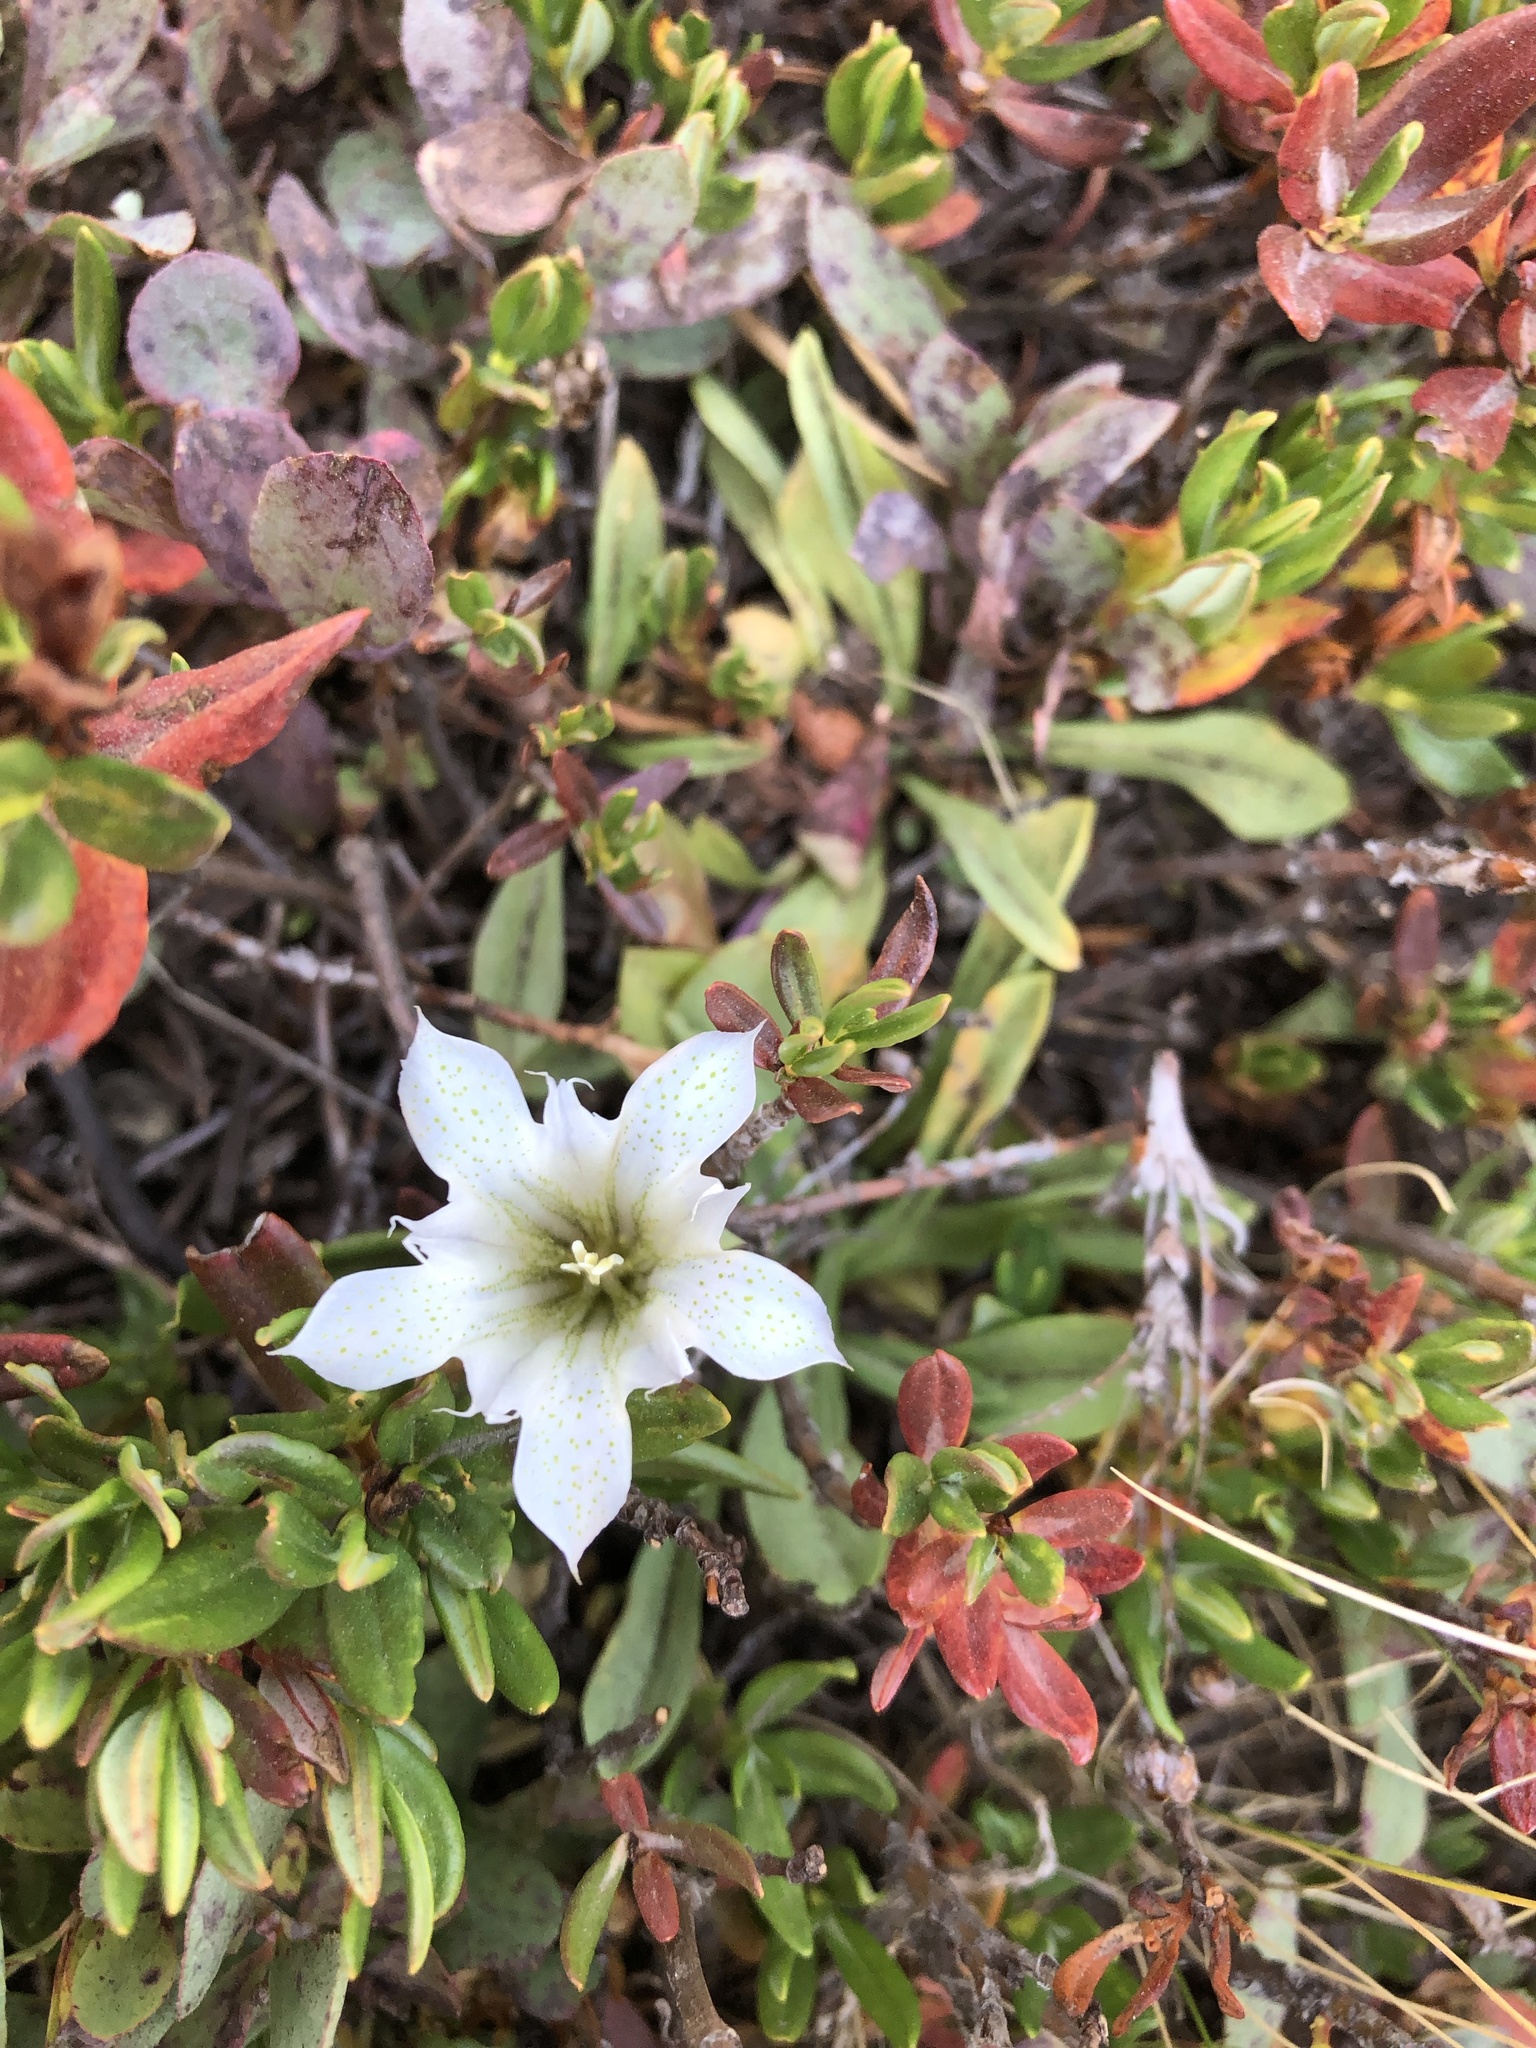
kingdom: Plantae
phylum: Tracheophyta
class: Magnoliopsida
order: Gentianales
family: Gentianaceae
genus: Gentiana
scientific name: Gentiana newberryi
